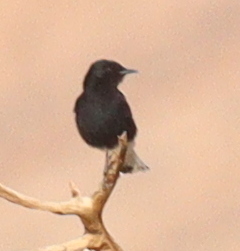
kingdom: Animalia
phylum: Chordata
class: Aves
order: Passeriformes
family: Muscicapidae
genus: Oenanthe
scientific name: Oenanthe leucopyga
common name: White-crowned wheatear
